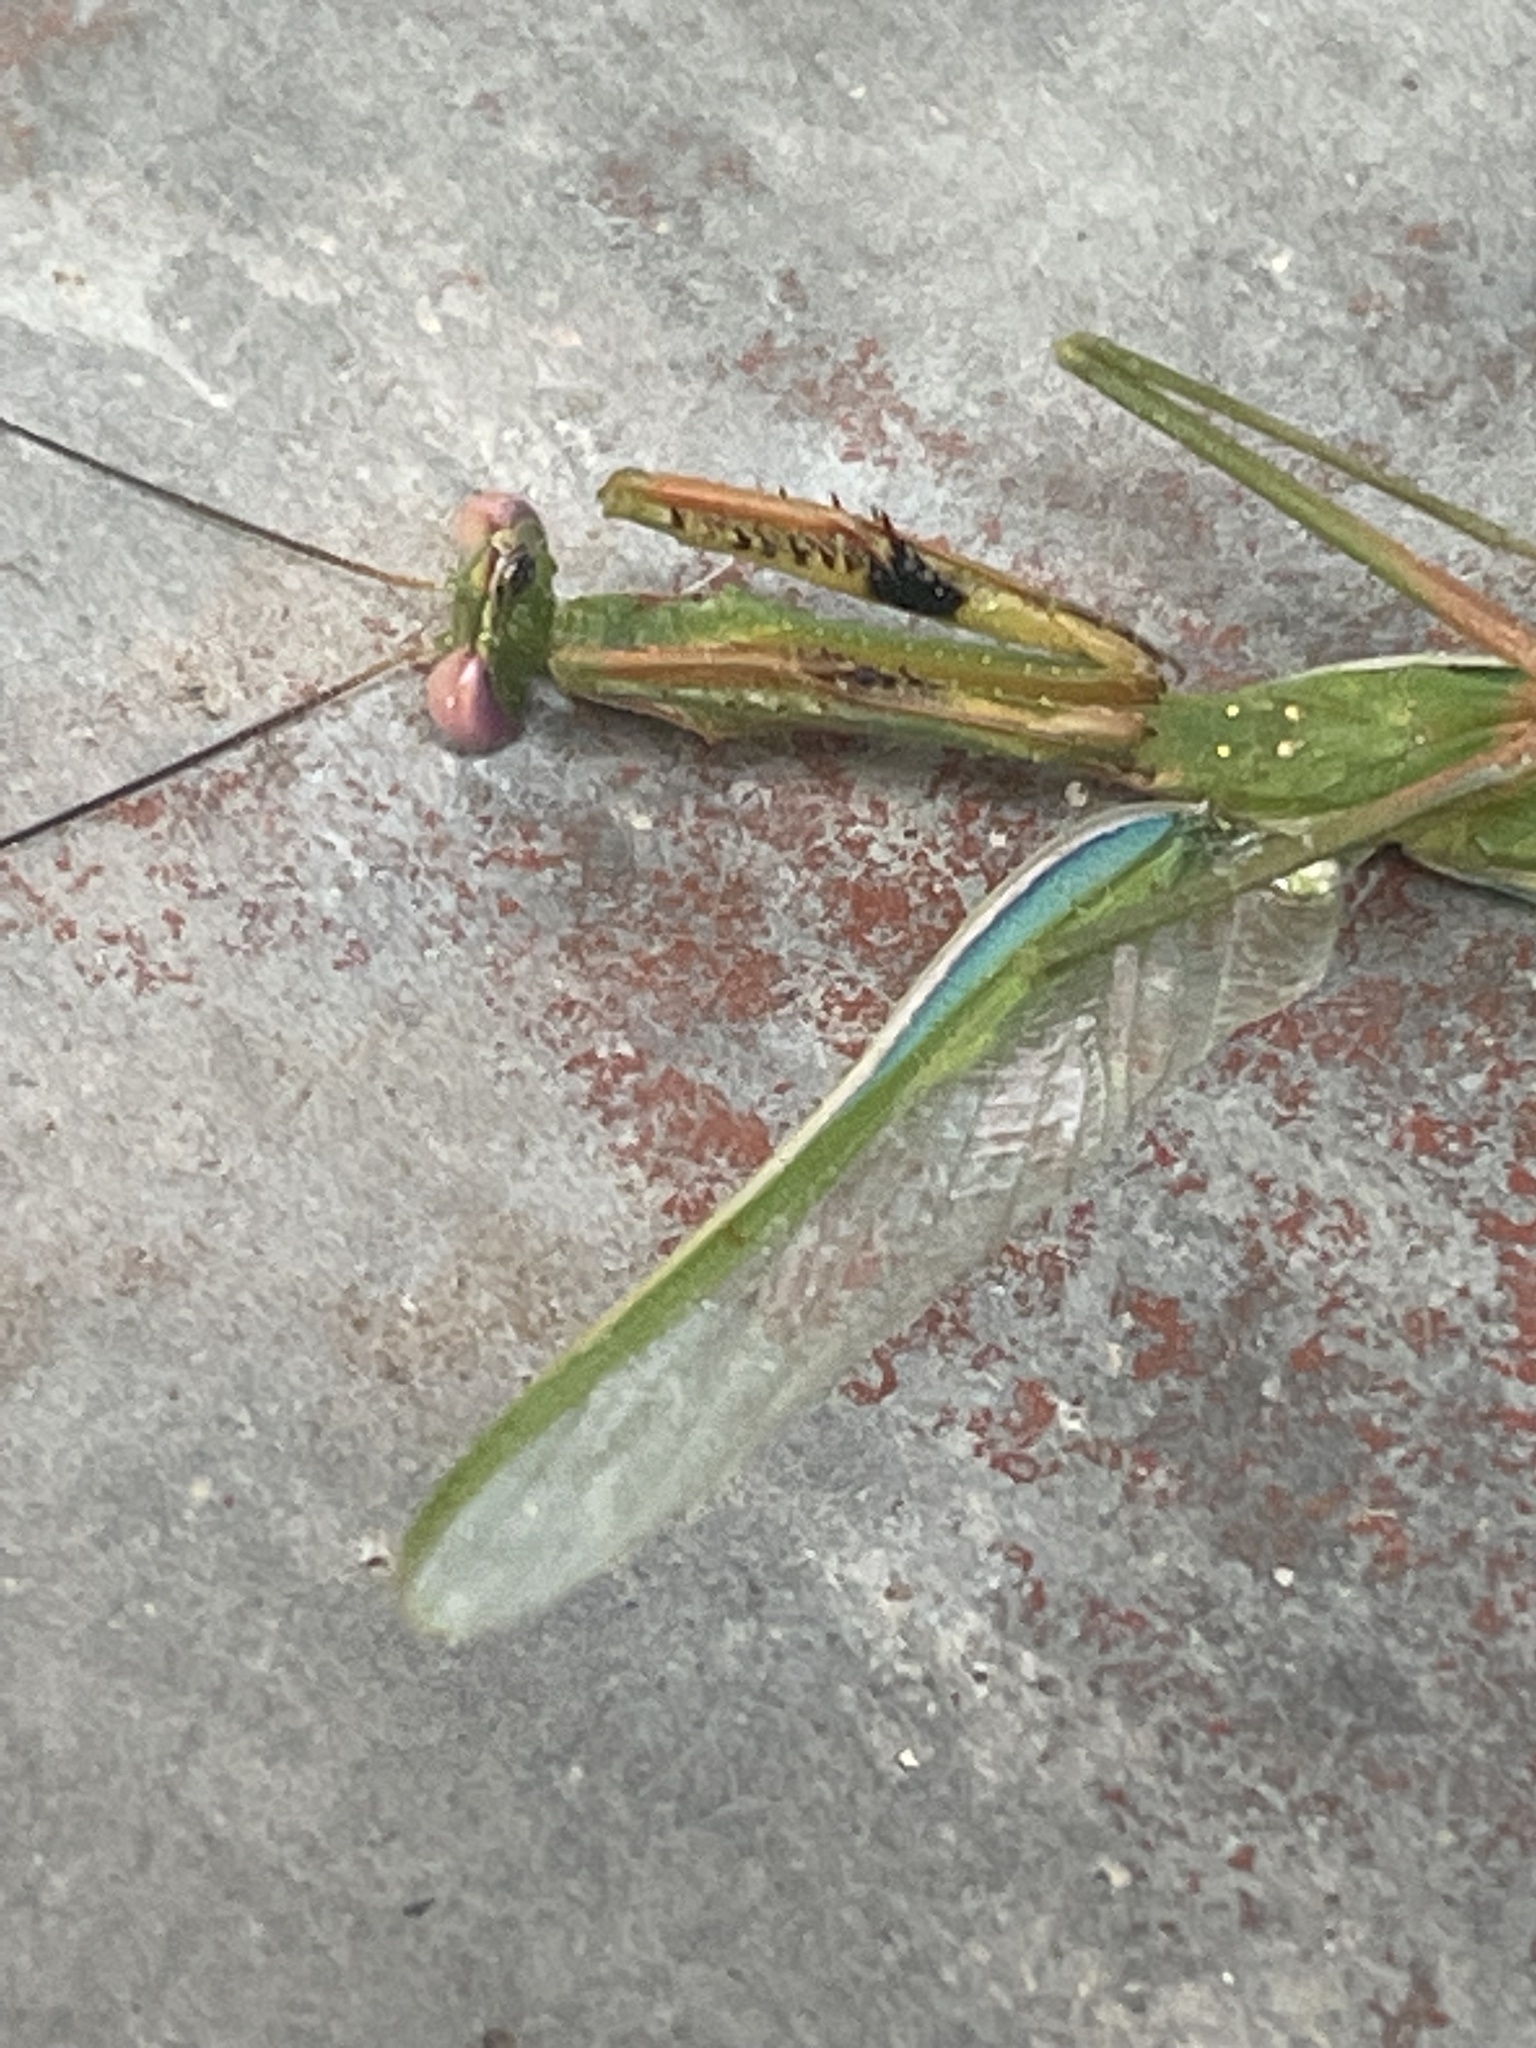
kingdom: Animalia
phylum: Arthropoda
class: Insecta
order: Mantodea
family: Mantidae
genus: Pseudomantis
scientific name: Pseudomantis albofimbriata
